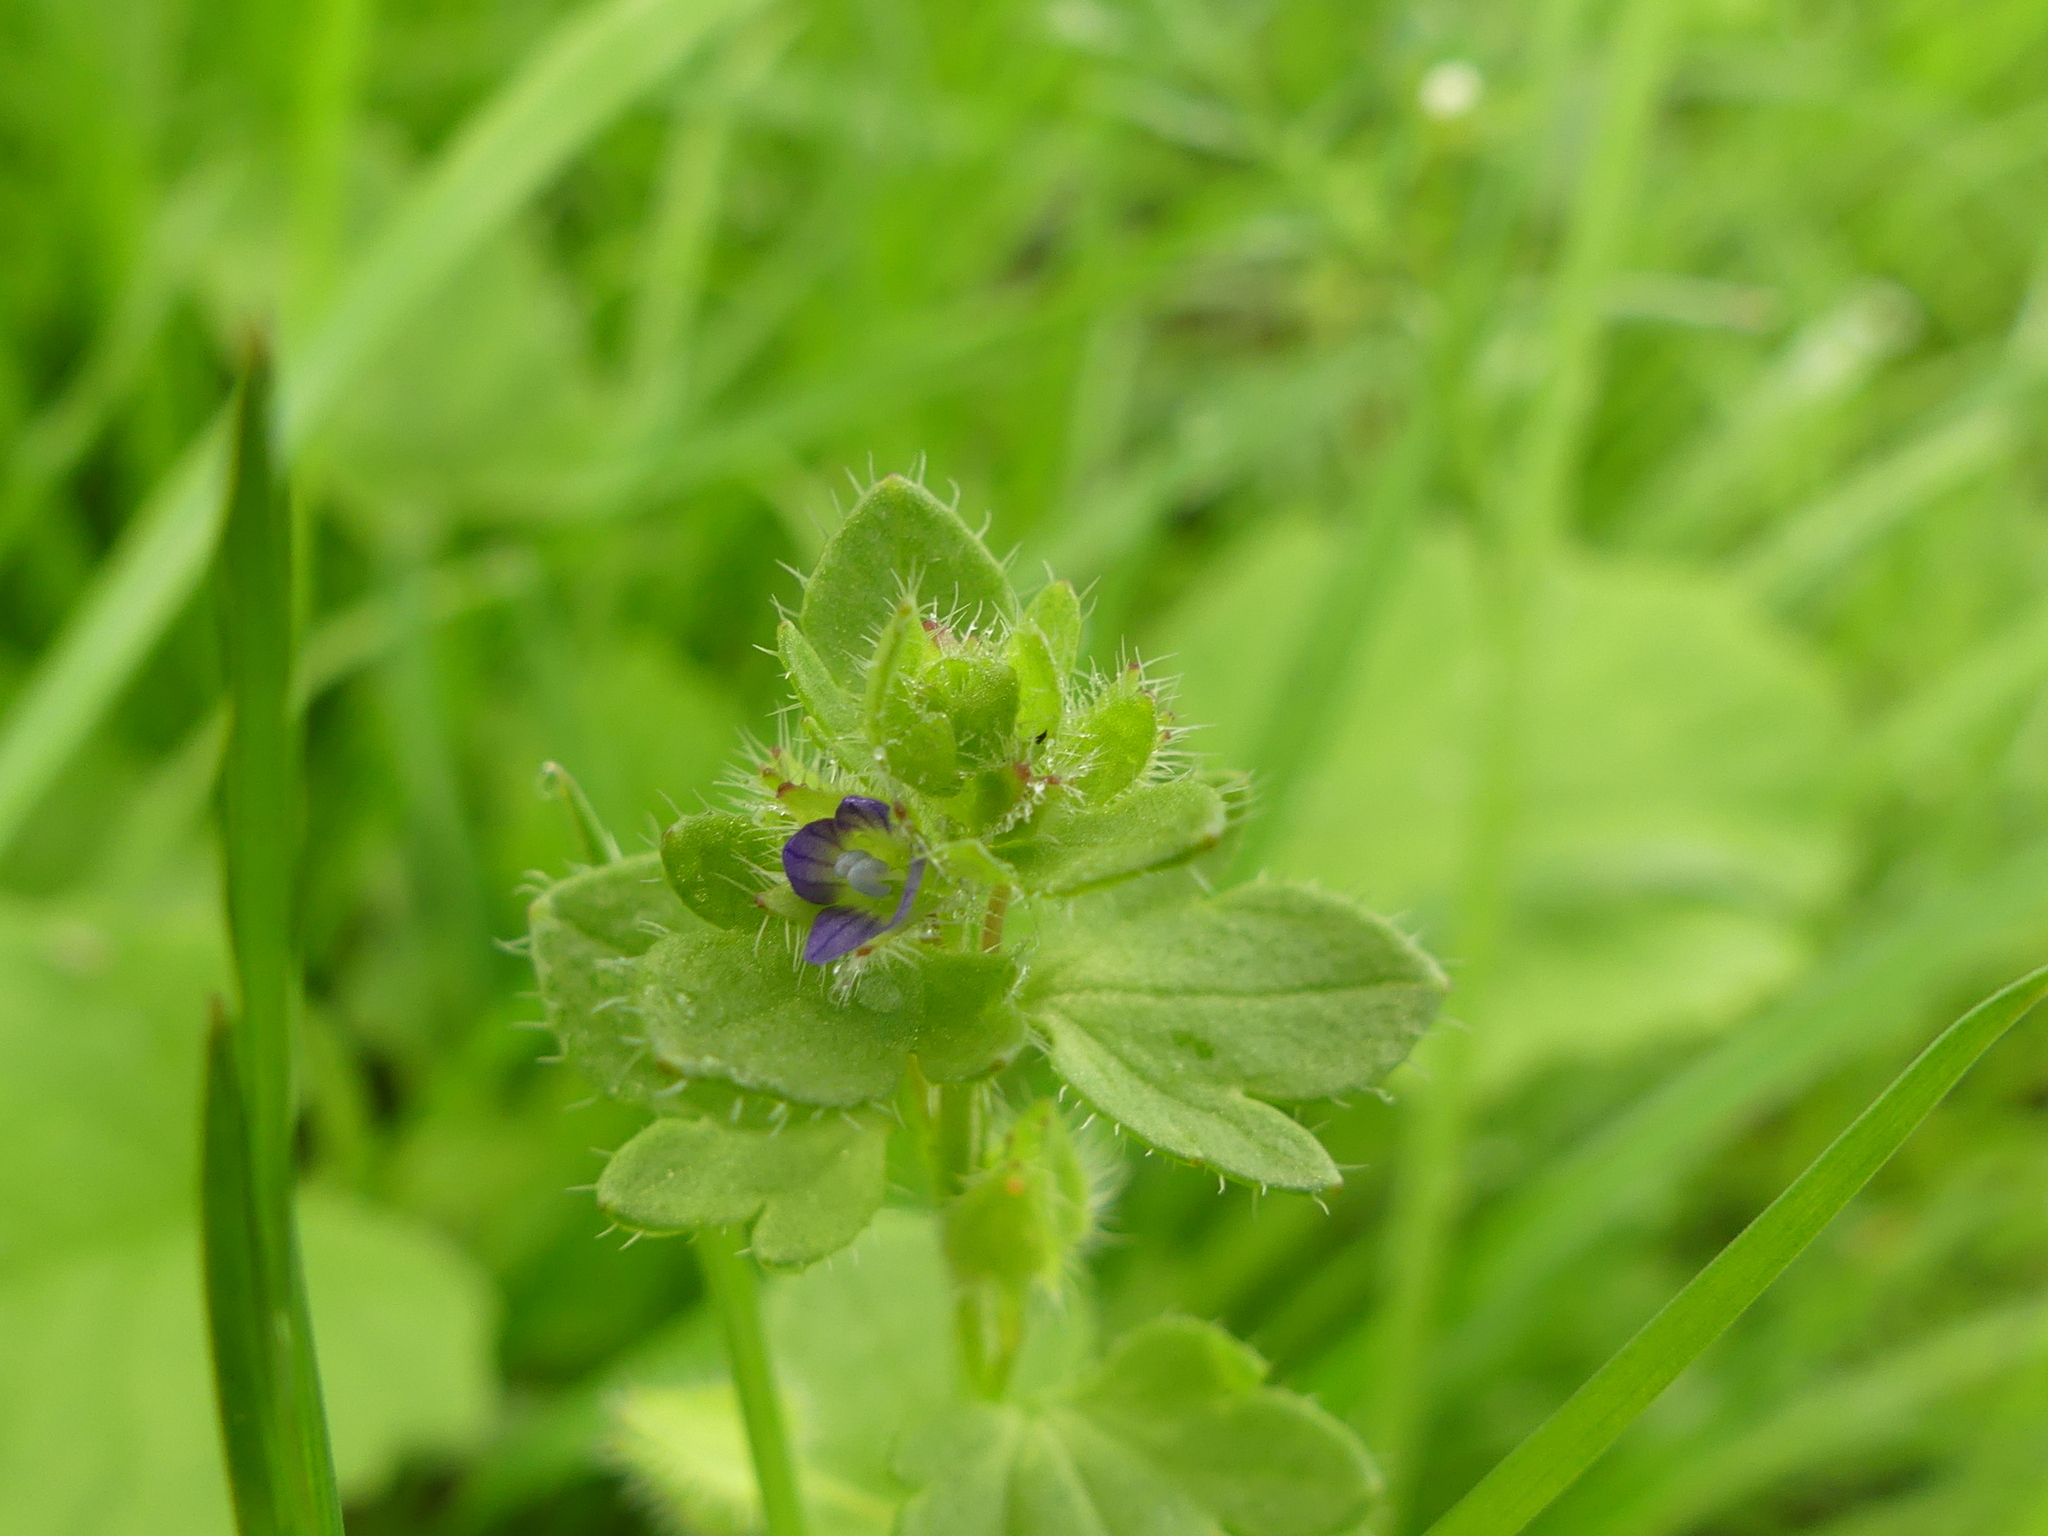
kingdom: Plantae
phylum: Tracheophyta
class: Magnoliopsida
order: Lamiales
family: Plantaginaceae
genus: Veronica
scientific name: Veronica hederifolia
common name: Ivy-leaved speedwell
